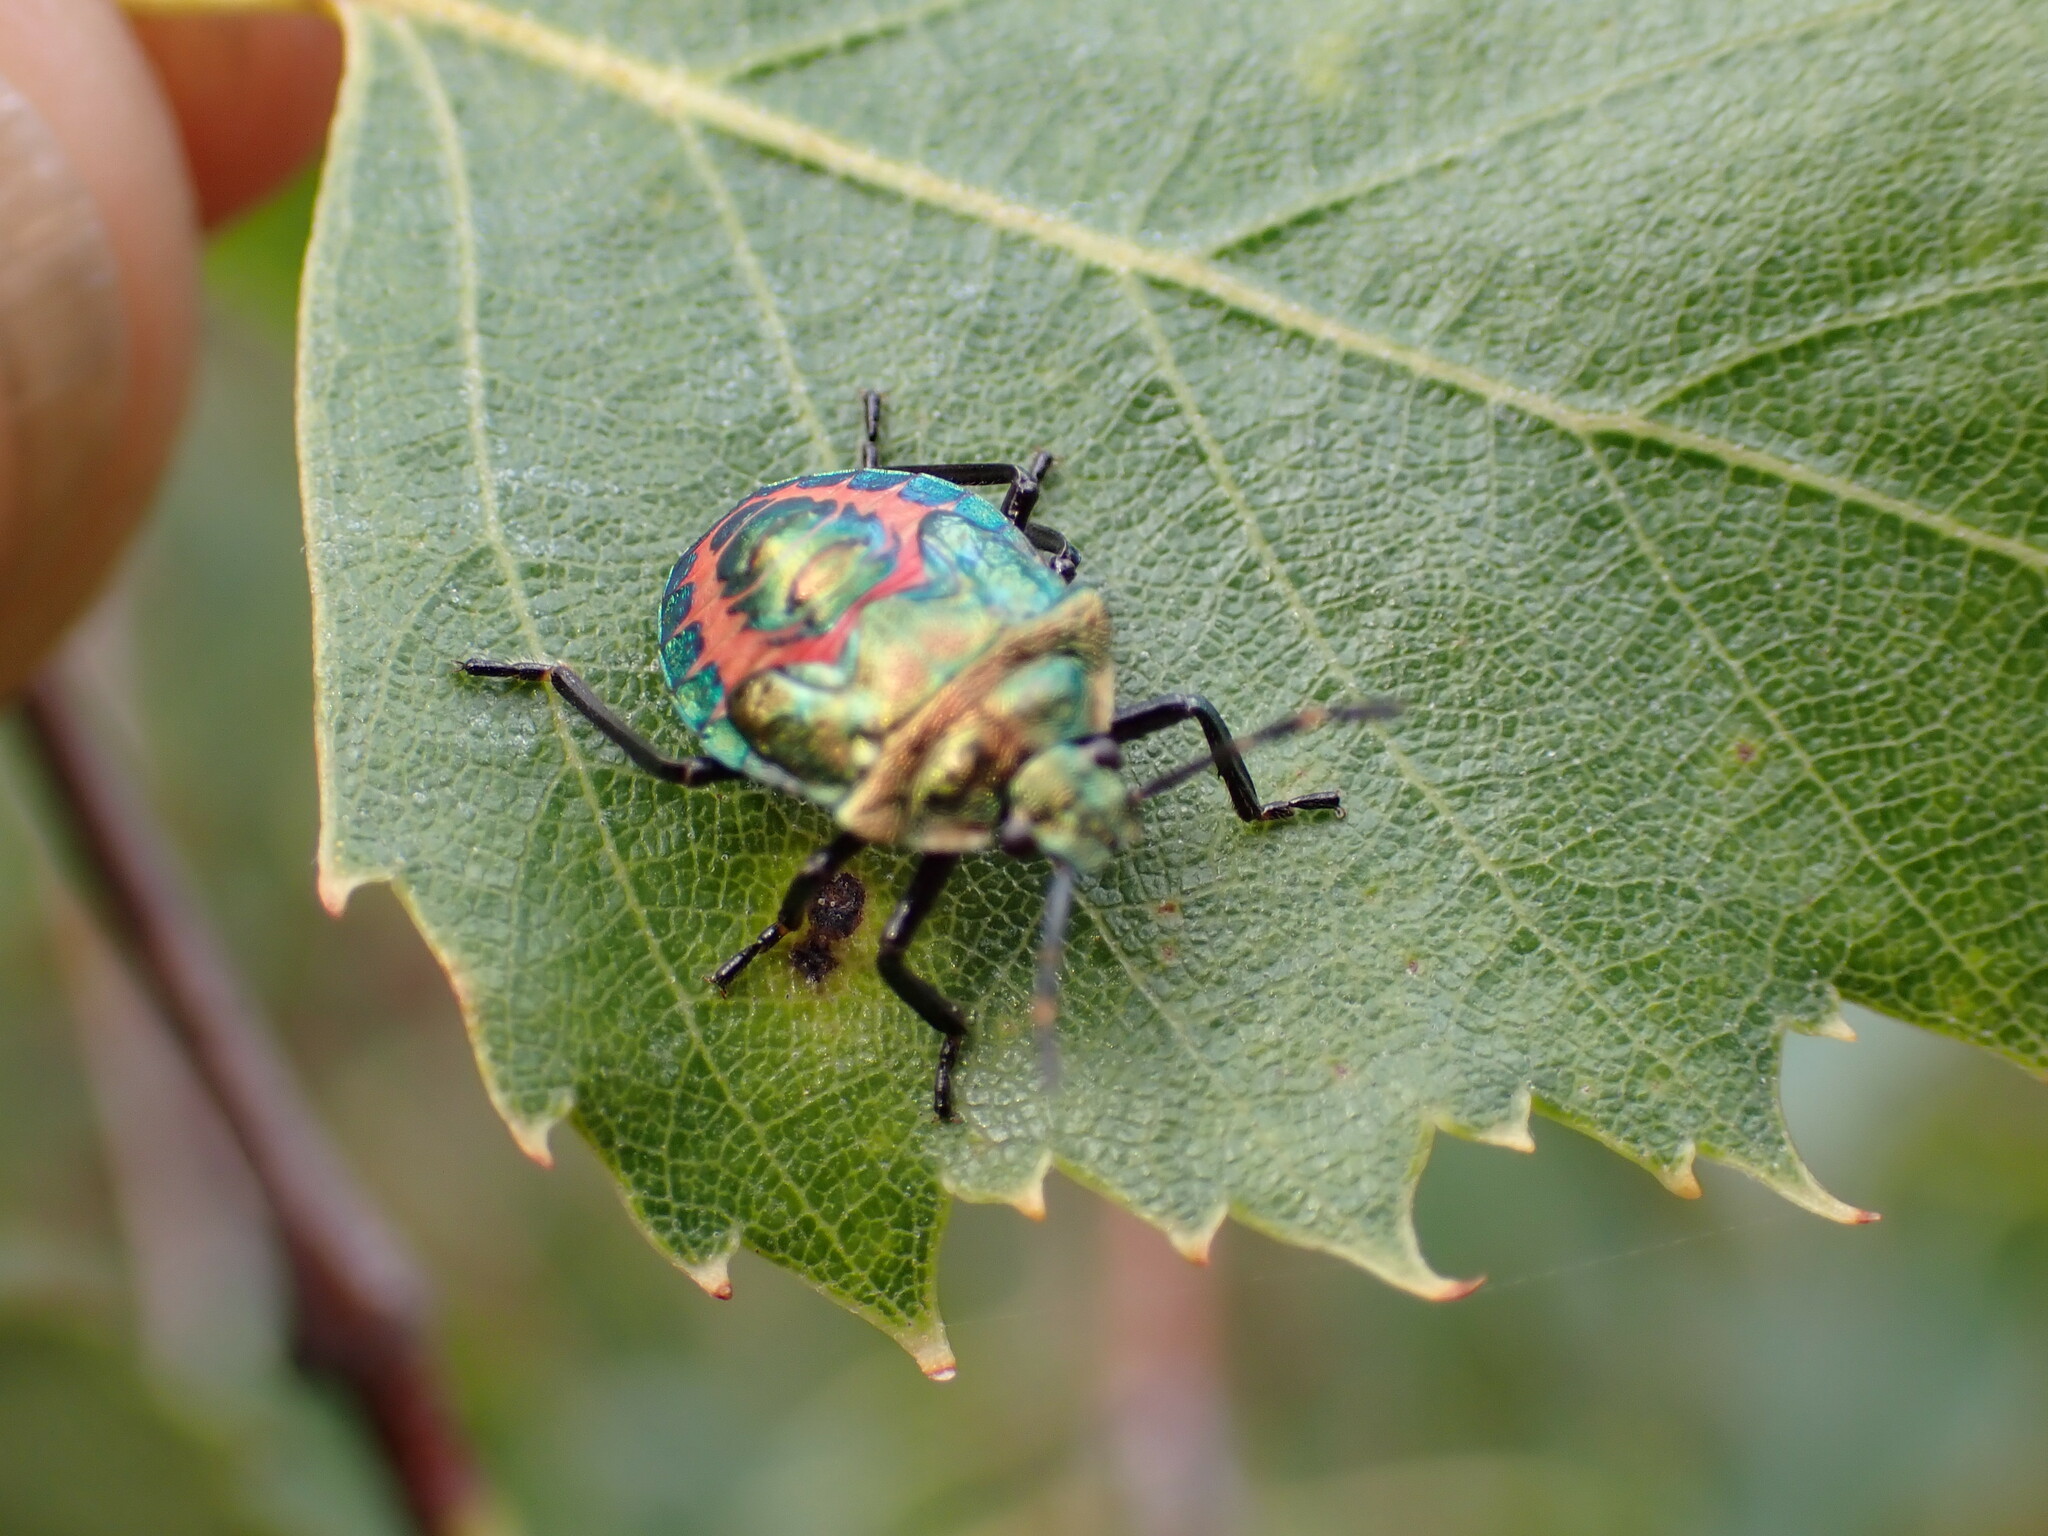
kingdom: Animalia
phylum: Arthropoda
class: Insecta
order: Hemiptera
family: Pentatomidae
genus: Troilus
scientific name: Troilus luridus
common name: Bronze shieldbug
